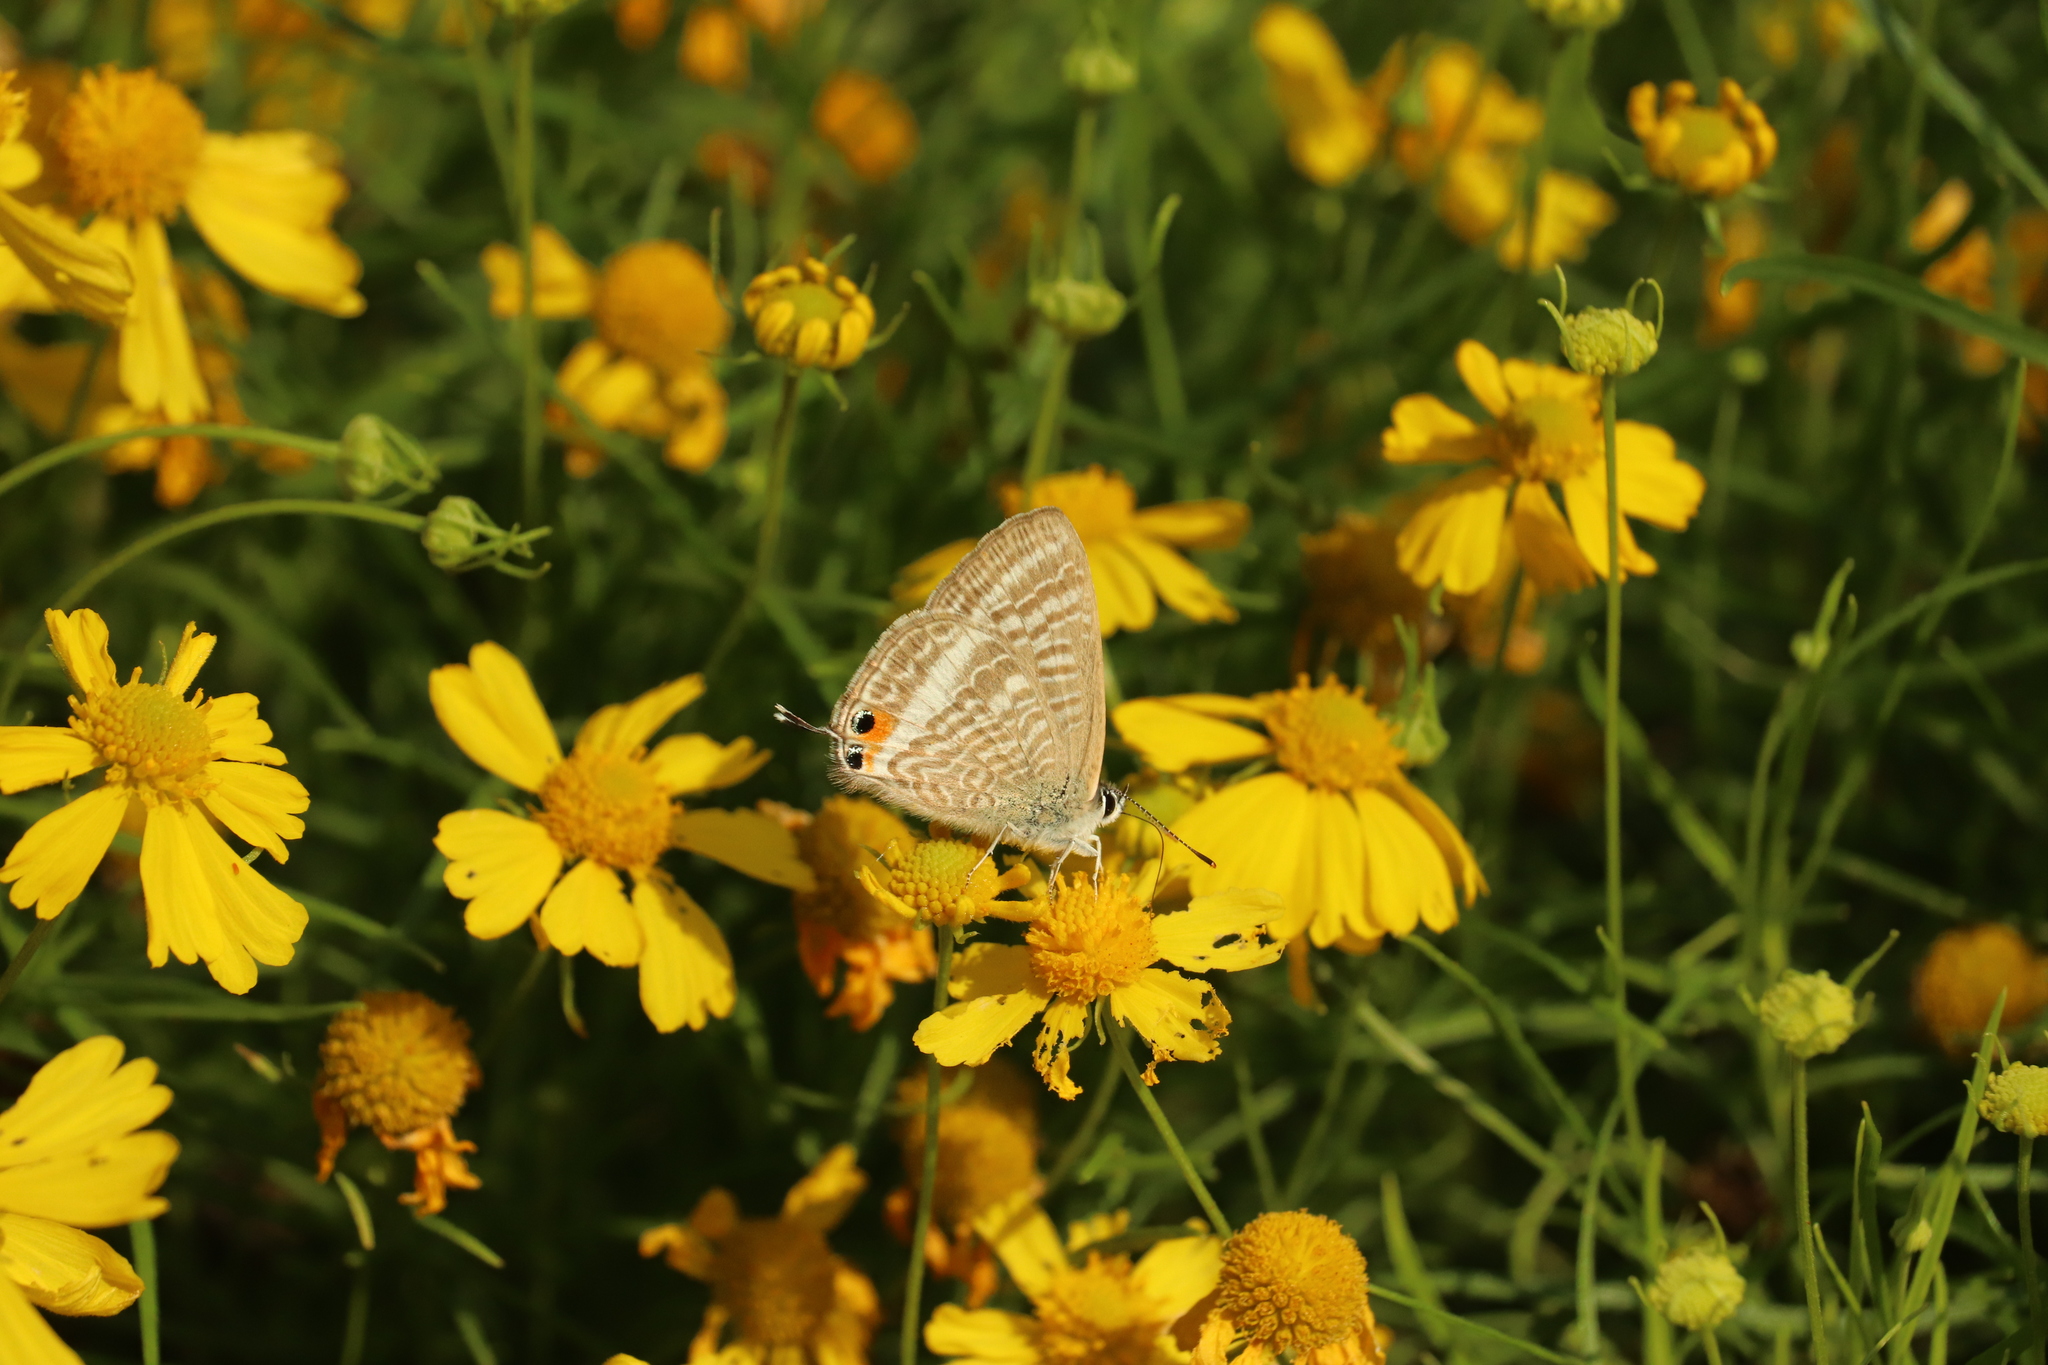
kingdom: Animalia
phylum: Arthropoda
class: Insecta
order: Lepidoptera
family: Lycaenidae
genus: Lampides
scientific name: Lampides boeticus
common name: Long-tailed blue
